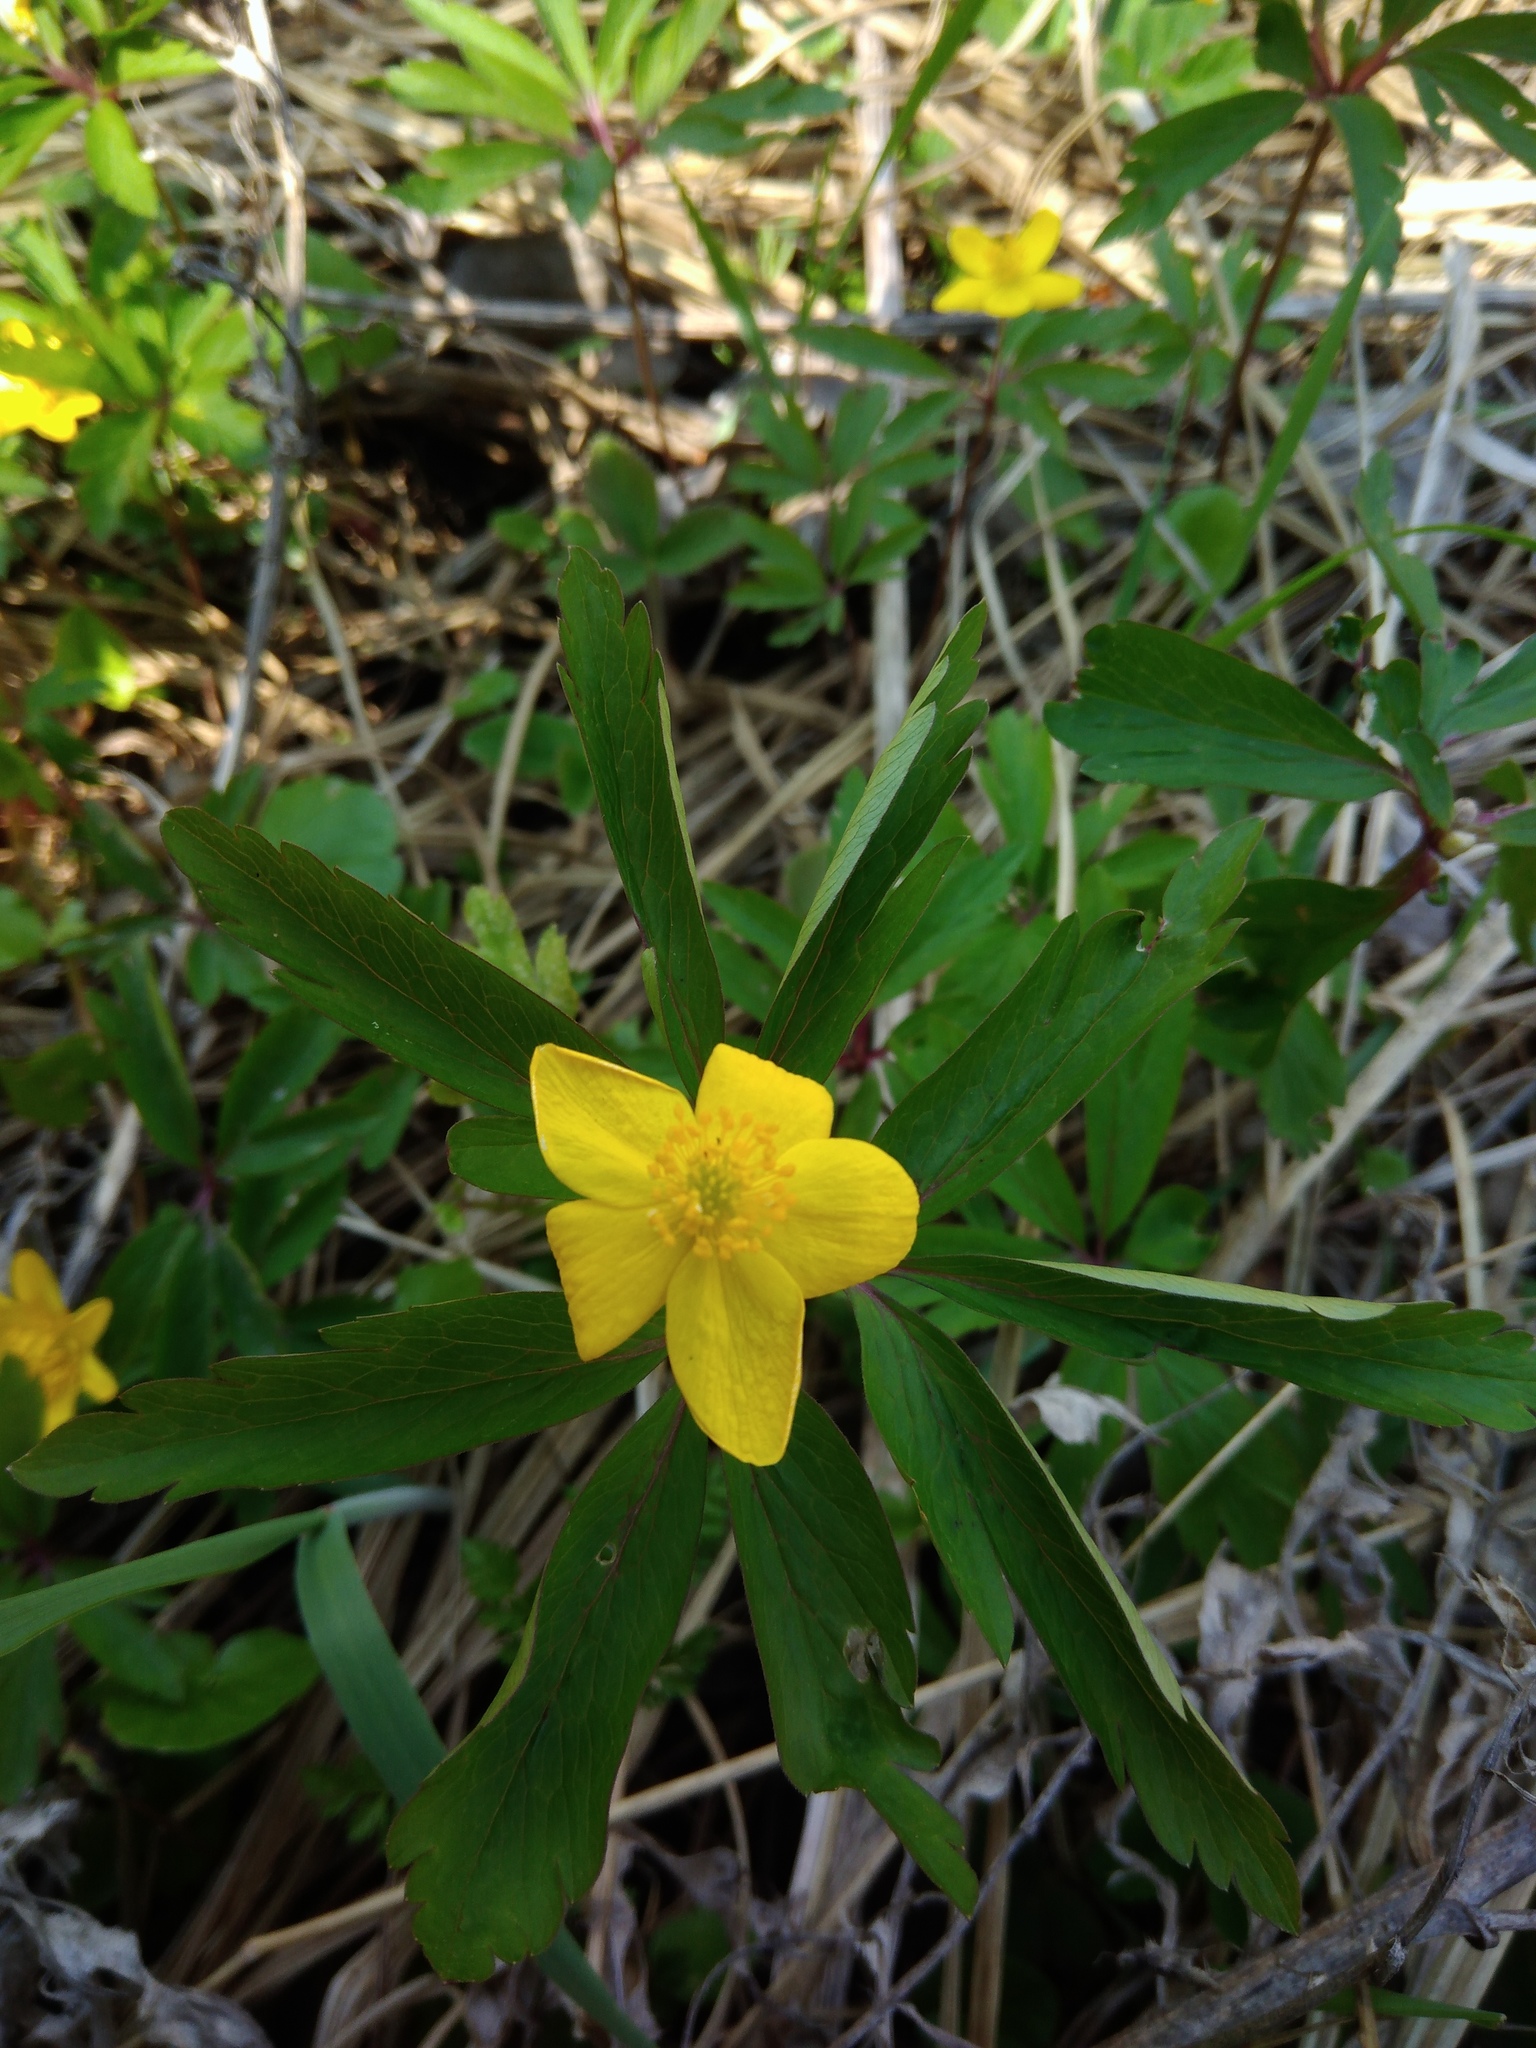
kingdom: Plantae
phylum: Tracheophyta
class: Magnoliopsida
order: Ranunculales
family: Ranunculaceae
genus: Anemone
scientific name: Anemone ranunculoides
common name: Yellow anemone
